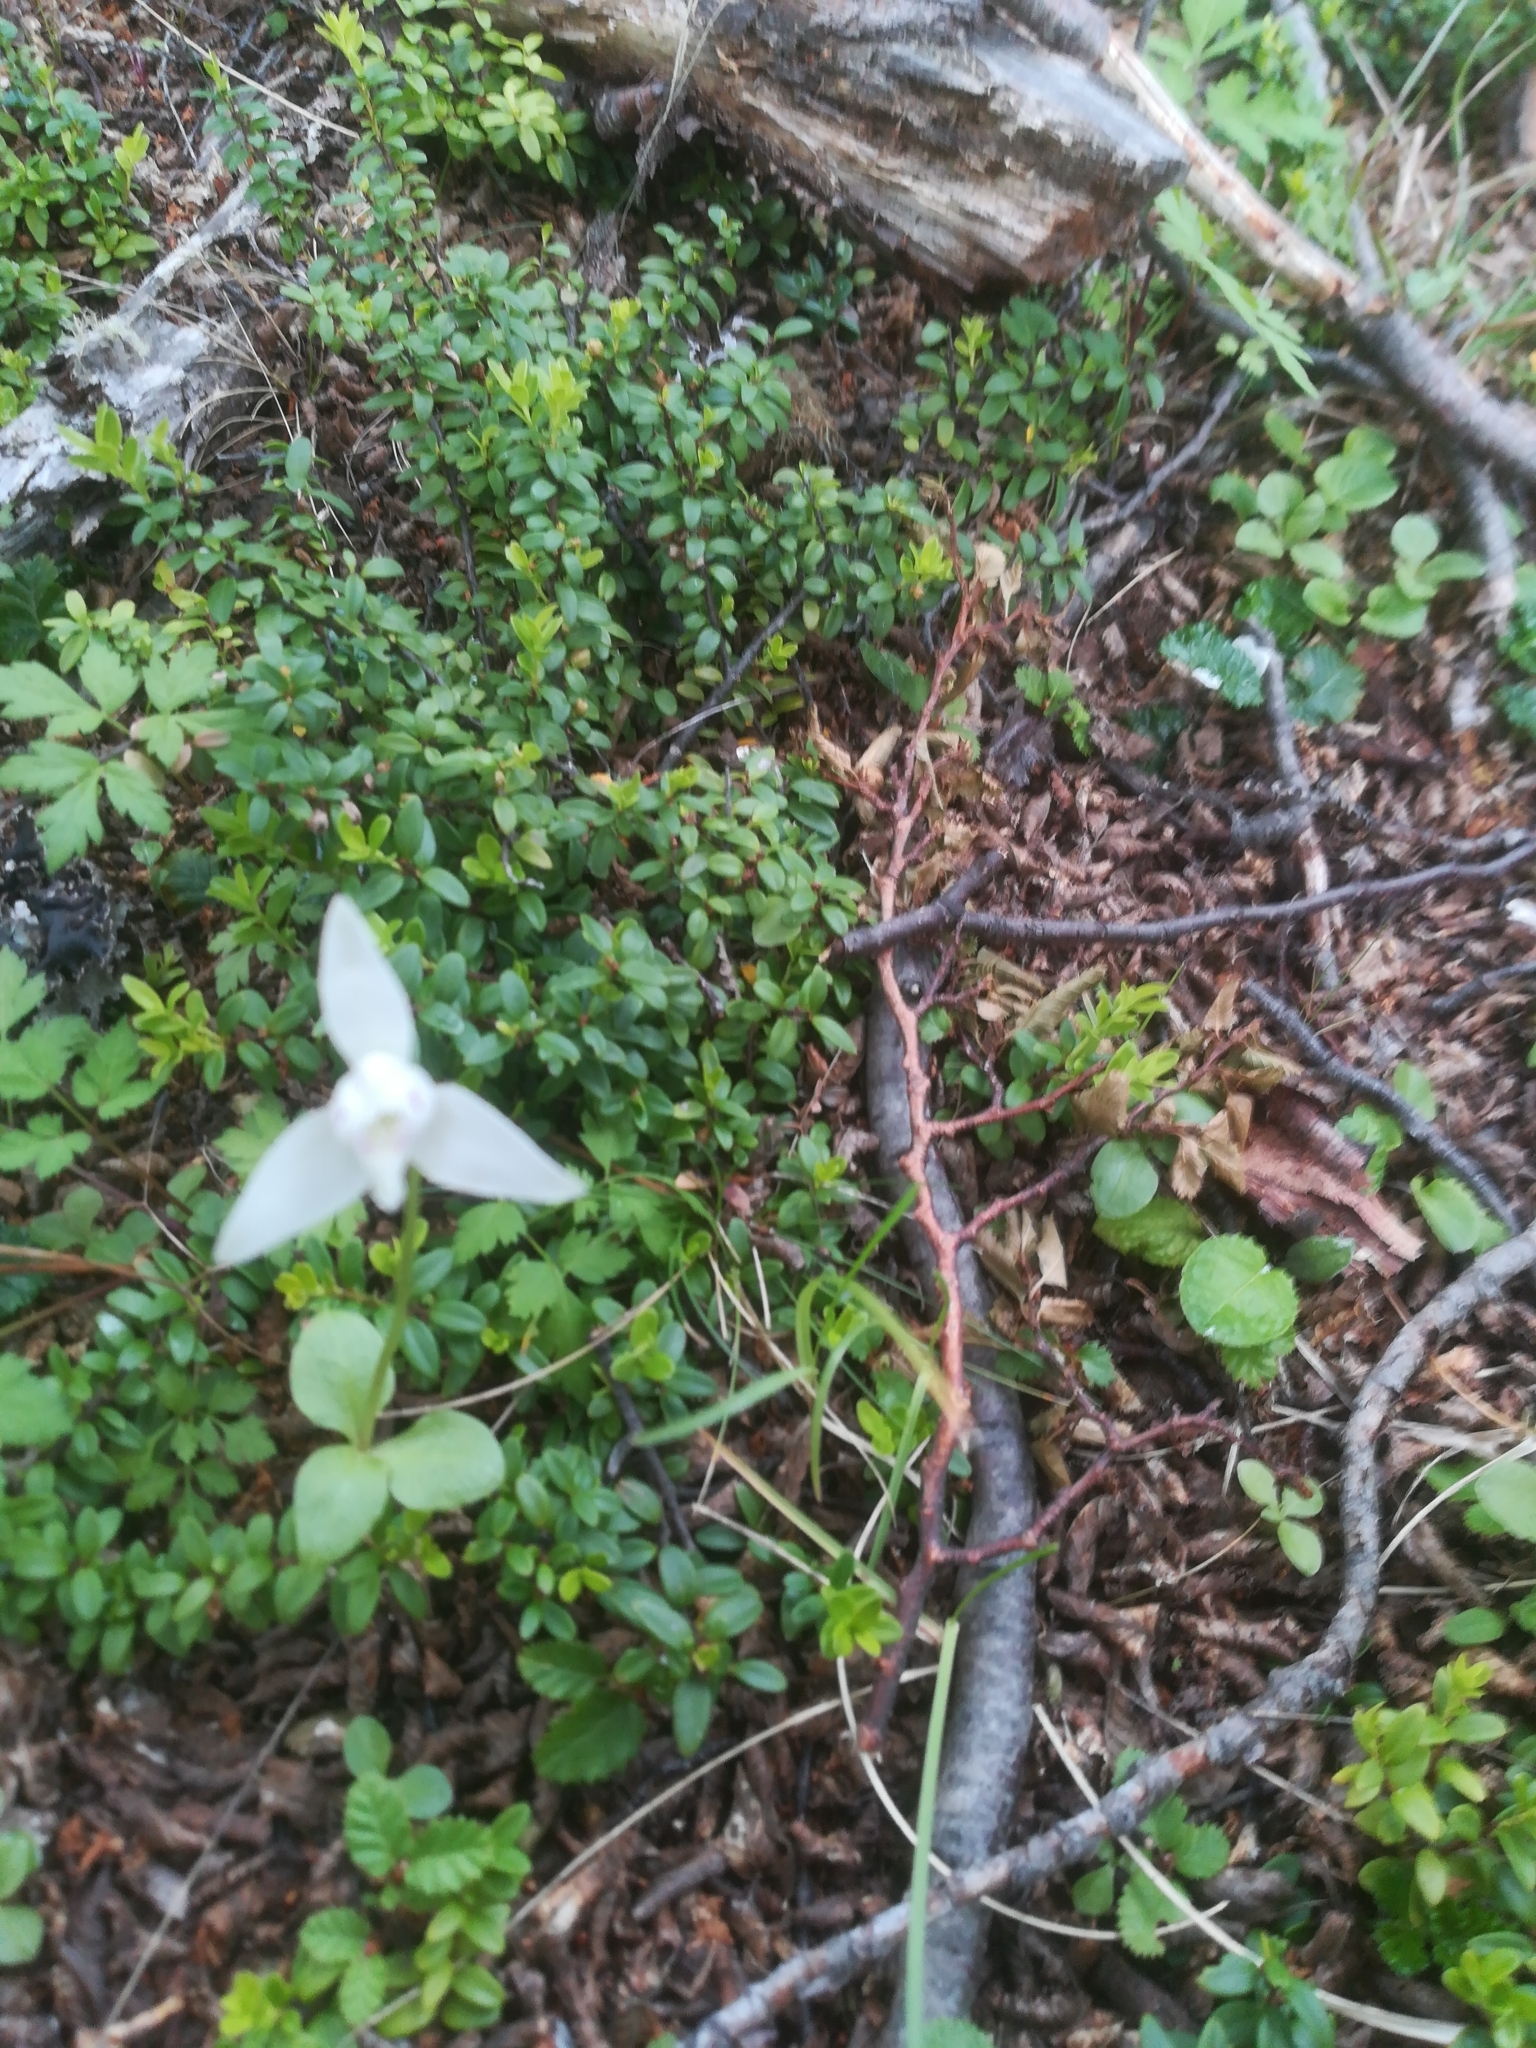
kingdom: Plantae
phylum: Tracheophyta
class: Liliopsida
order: Asparagales
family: Orchidaceae
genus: Codonorchis
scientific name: Codonorchis lessonii
